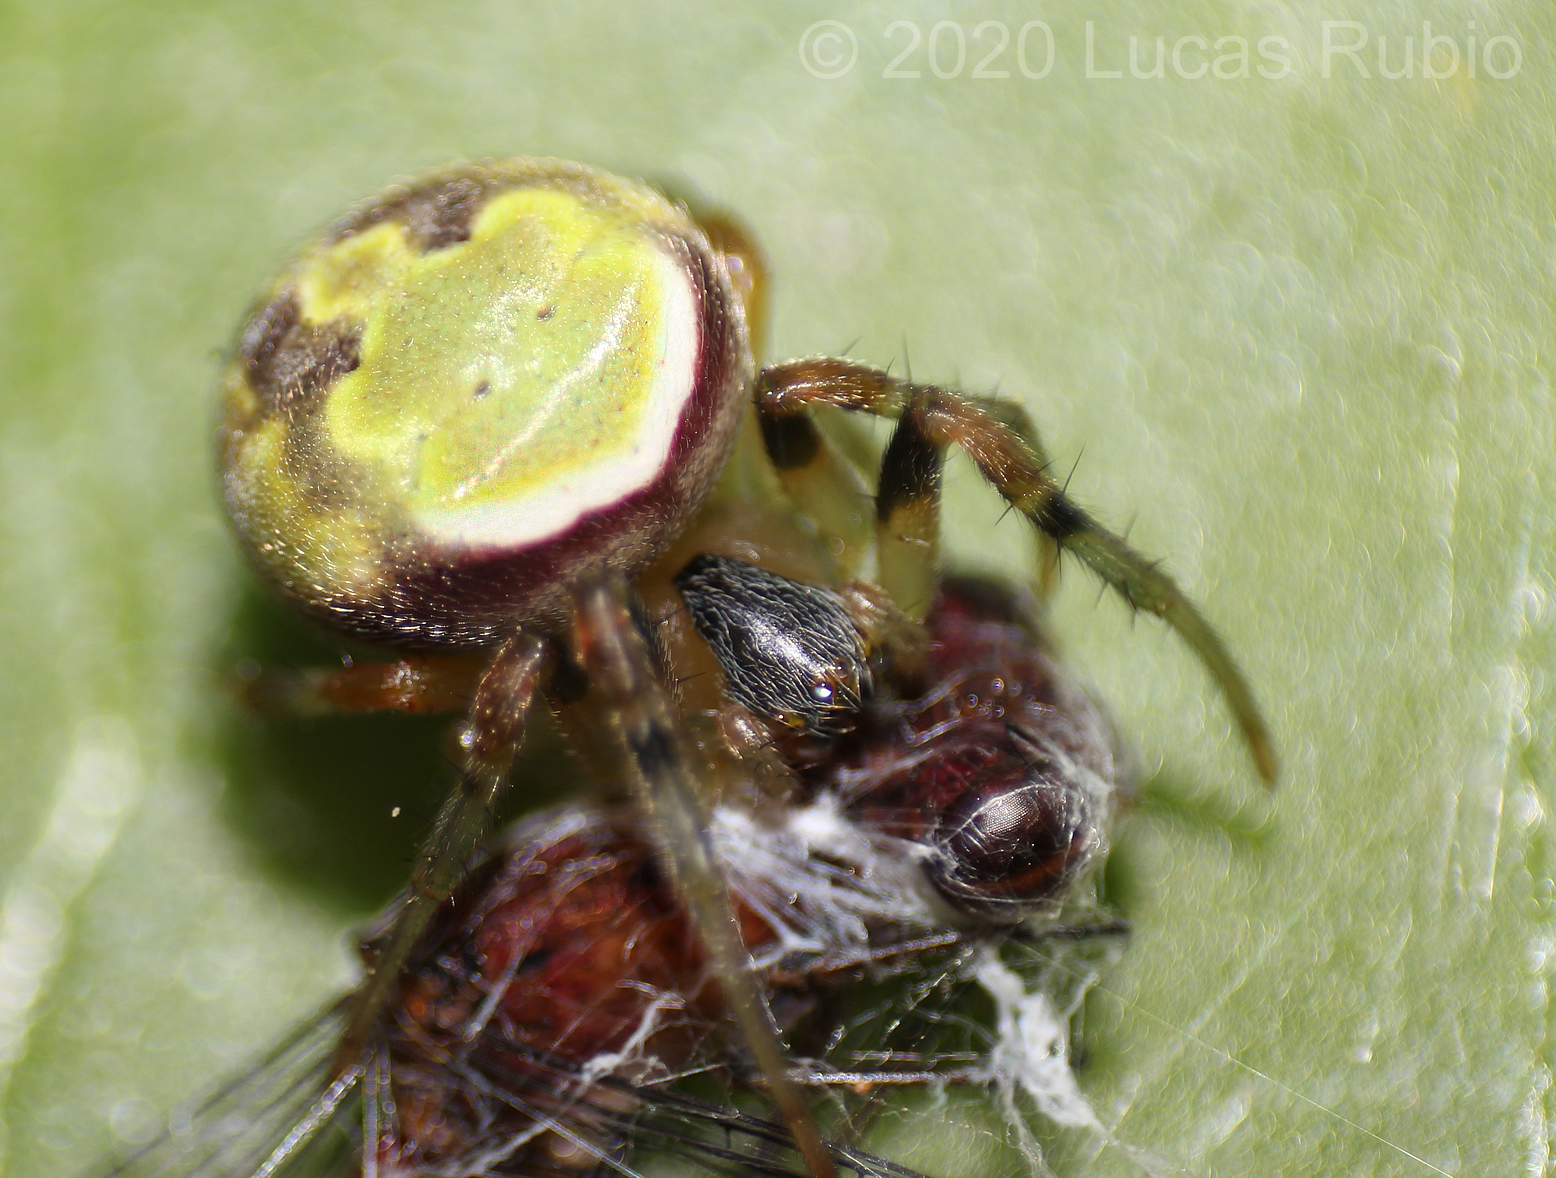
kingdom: Animalia
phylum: Arthropoda
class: Arachnida
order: Araneae
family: Araneidae
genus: Araneus
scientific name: Araneus lathyrinus
